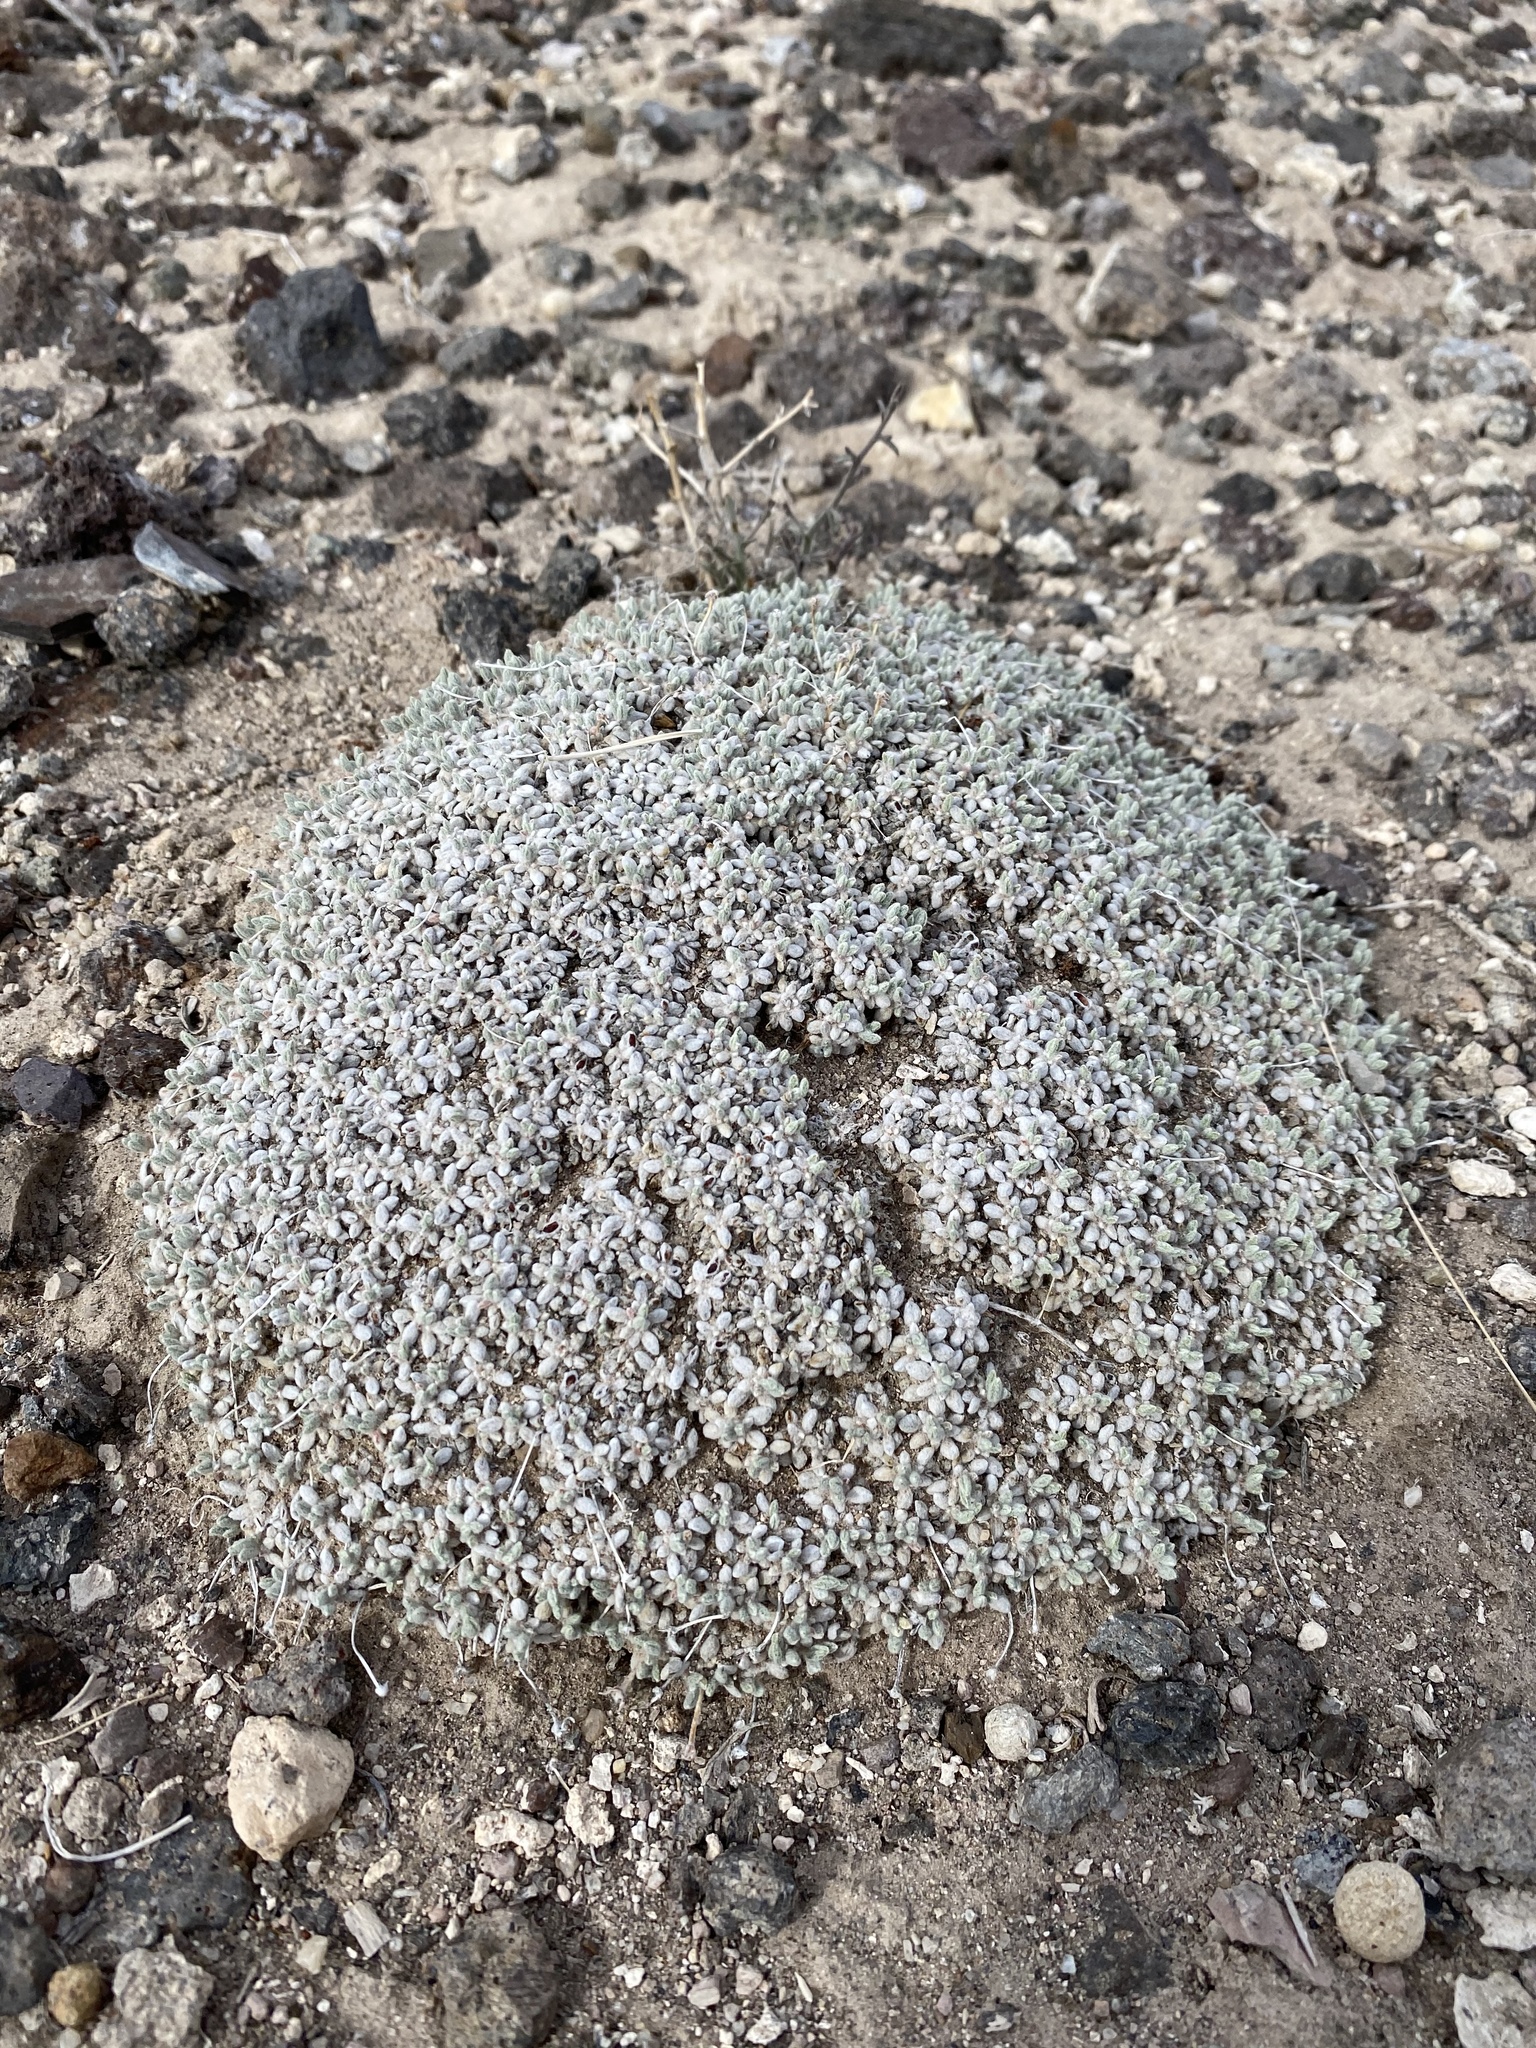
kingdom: Plantae
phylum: Tracheophyta
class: Magnoliopsida
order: Caryophyllales
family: Polygonaceae
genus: Eriogonum
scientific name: Eriogonum shockleyi
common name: Shockley's wild buckwheat
